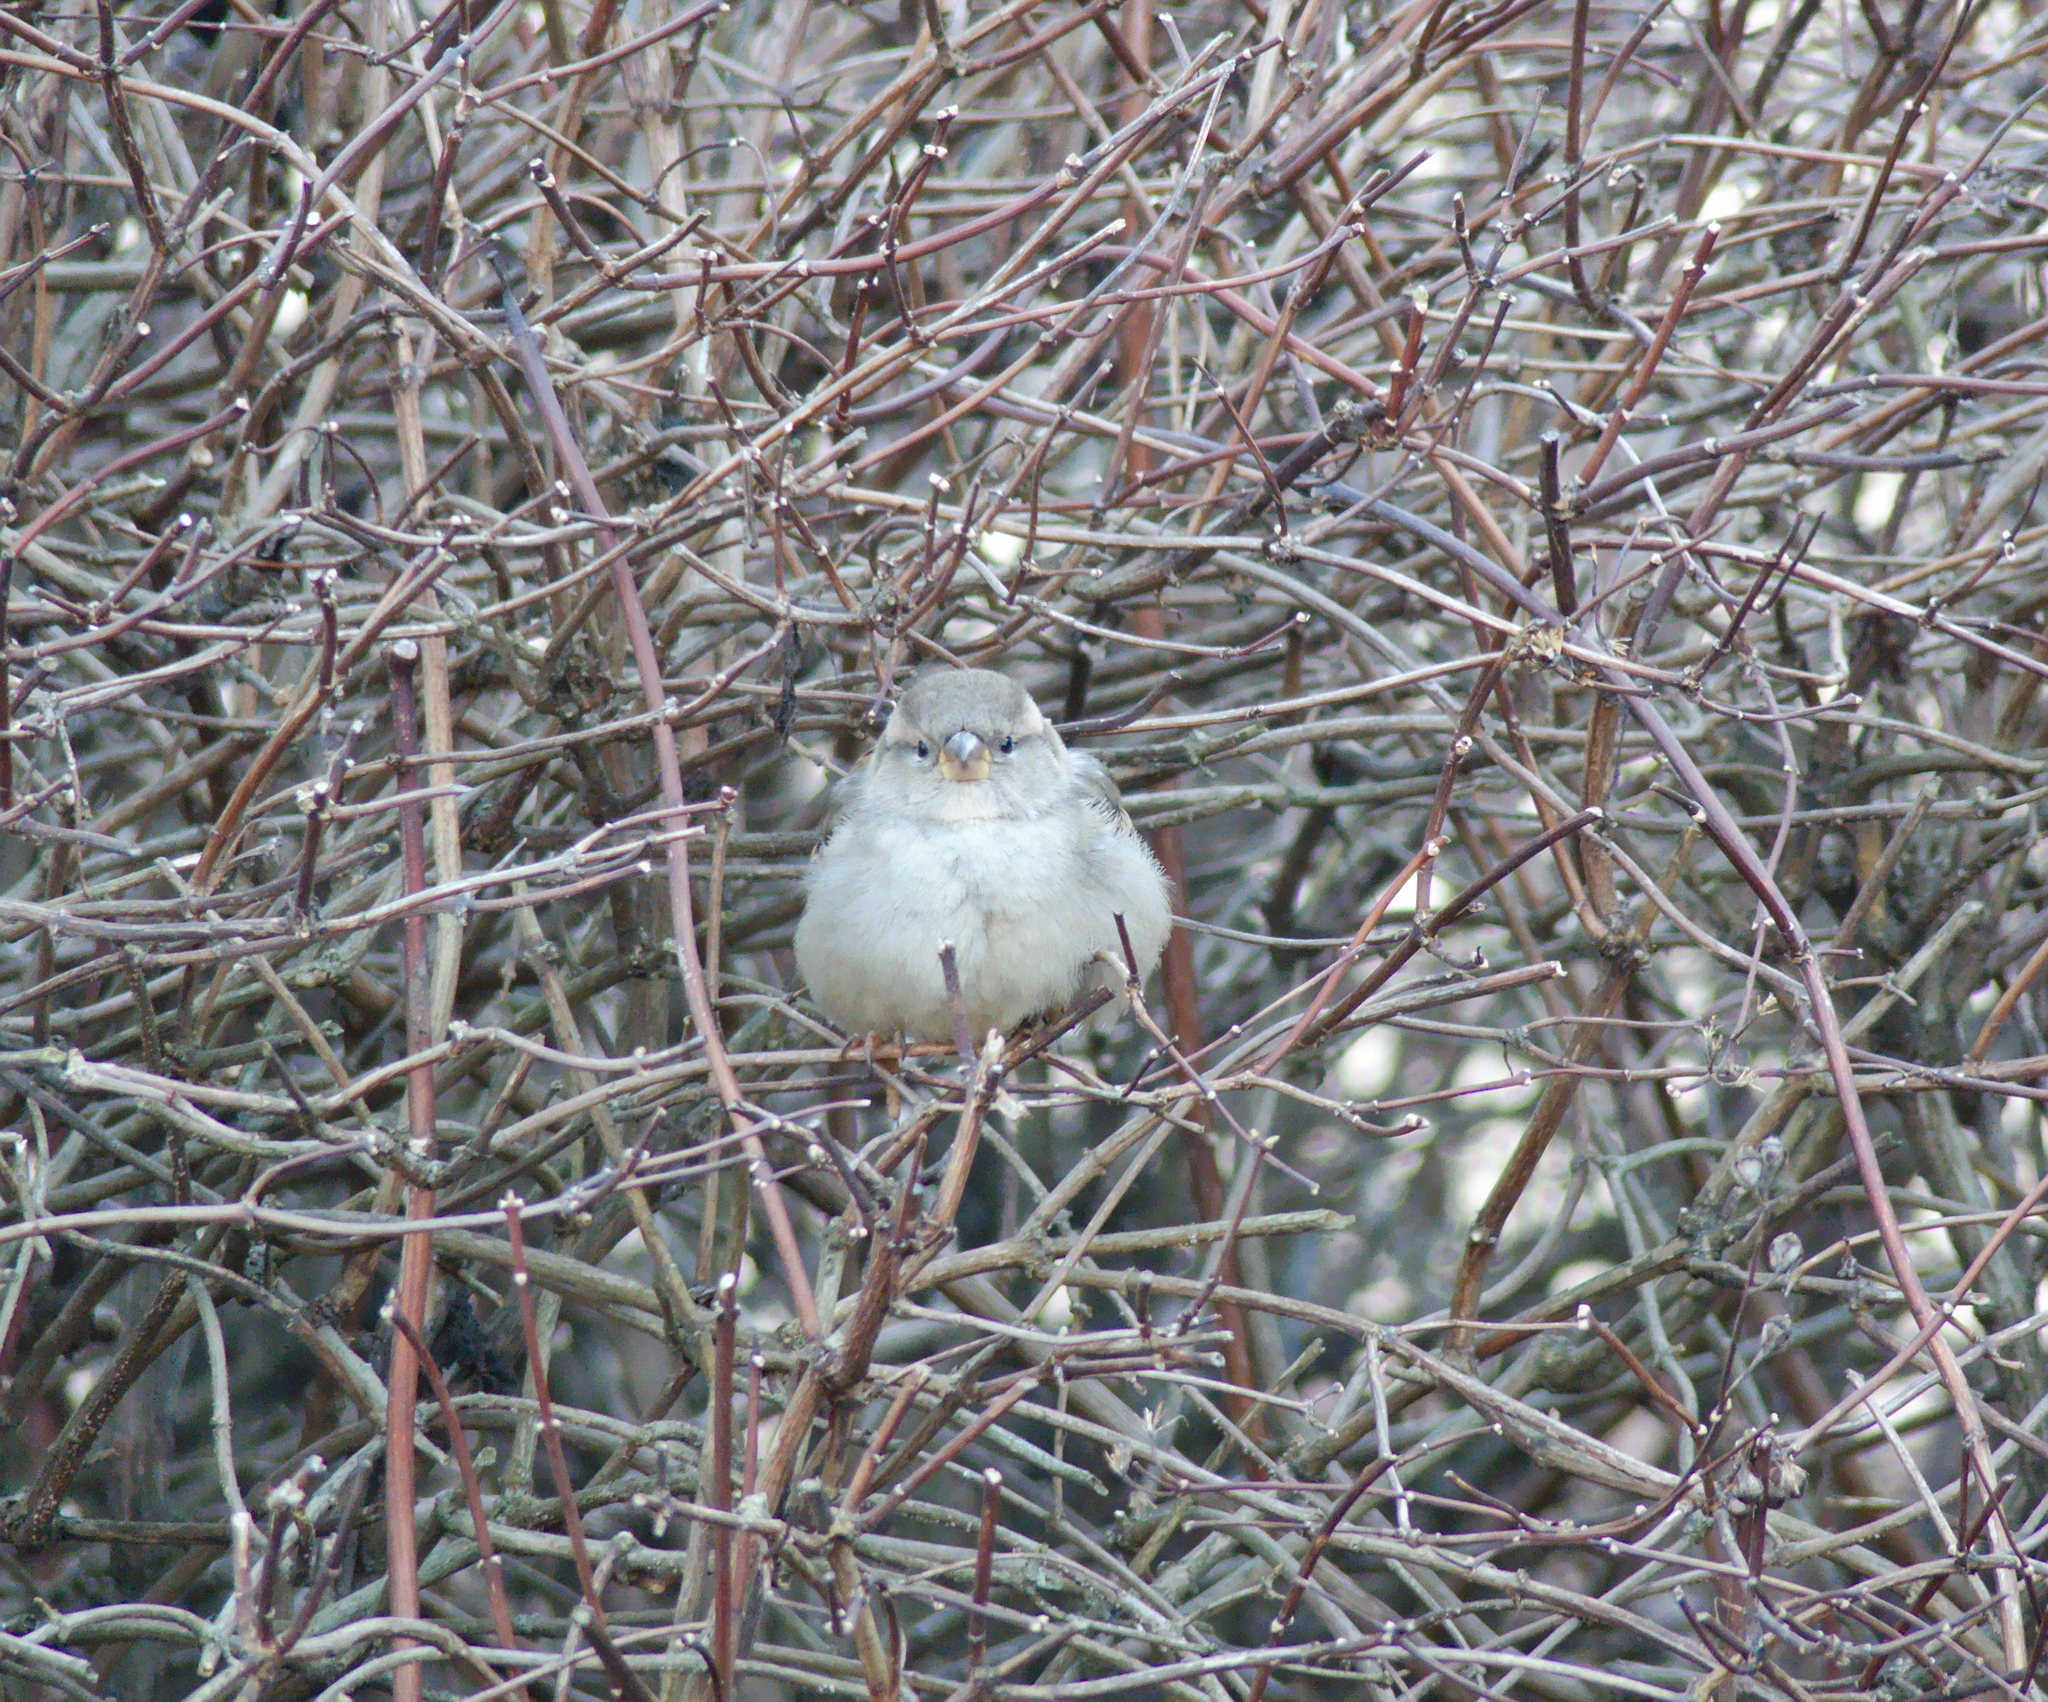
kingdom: Animalia
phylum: Chordata
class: Aves
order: Passeriformes
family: Passeridae
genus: Passer
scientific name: Passer domesticus
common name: House sparrow
